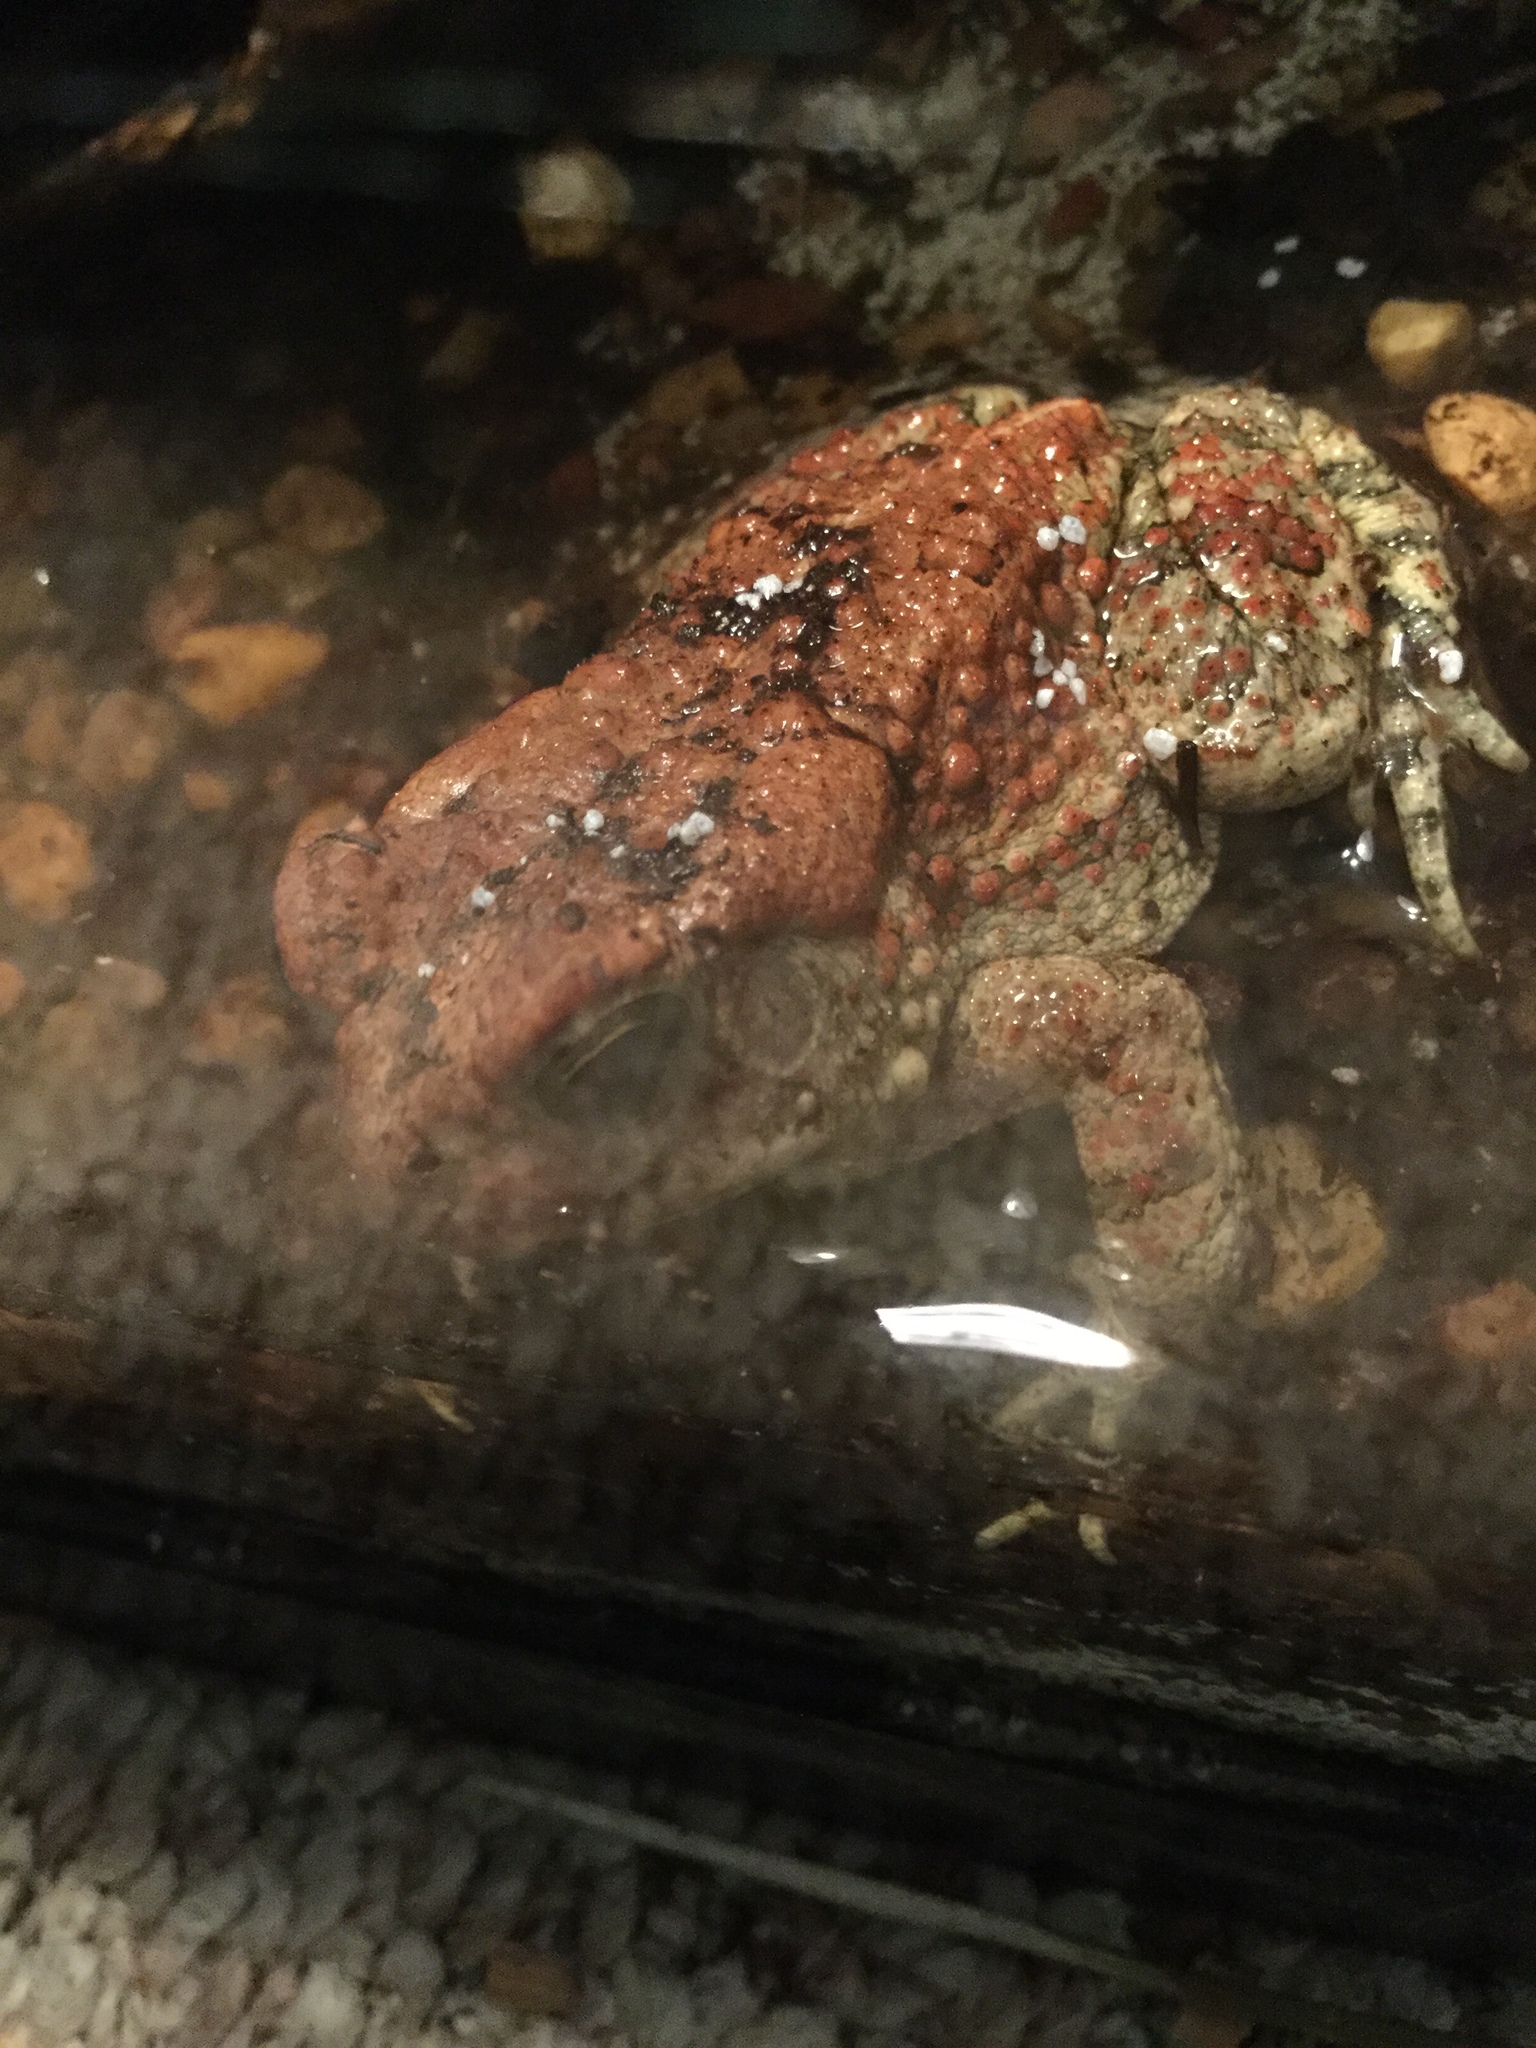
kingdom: Animalia
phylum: Chordata
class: Amphibia
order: Anura
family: Bufonidae
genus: Anaxyrus
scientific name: Anaxyrus americanus
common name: American toad
